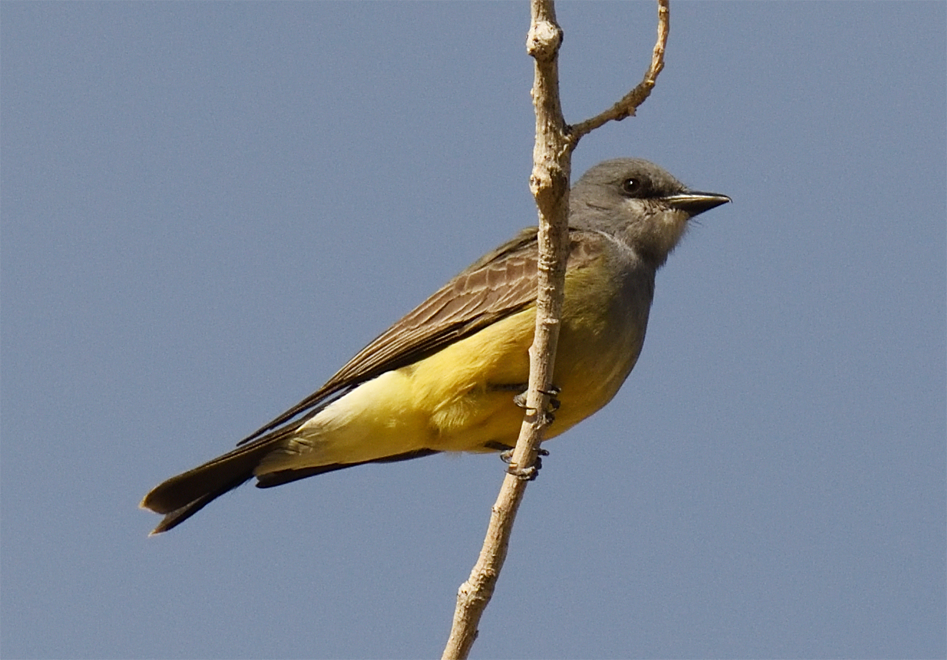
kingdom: Animalia
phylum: Chordata
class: Aves
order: Passeriformes
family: Tyrannidae
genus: Tyrannus
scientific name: Tyrannus vociferans
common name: Cassin's kingbird
